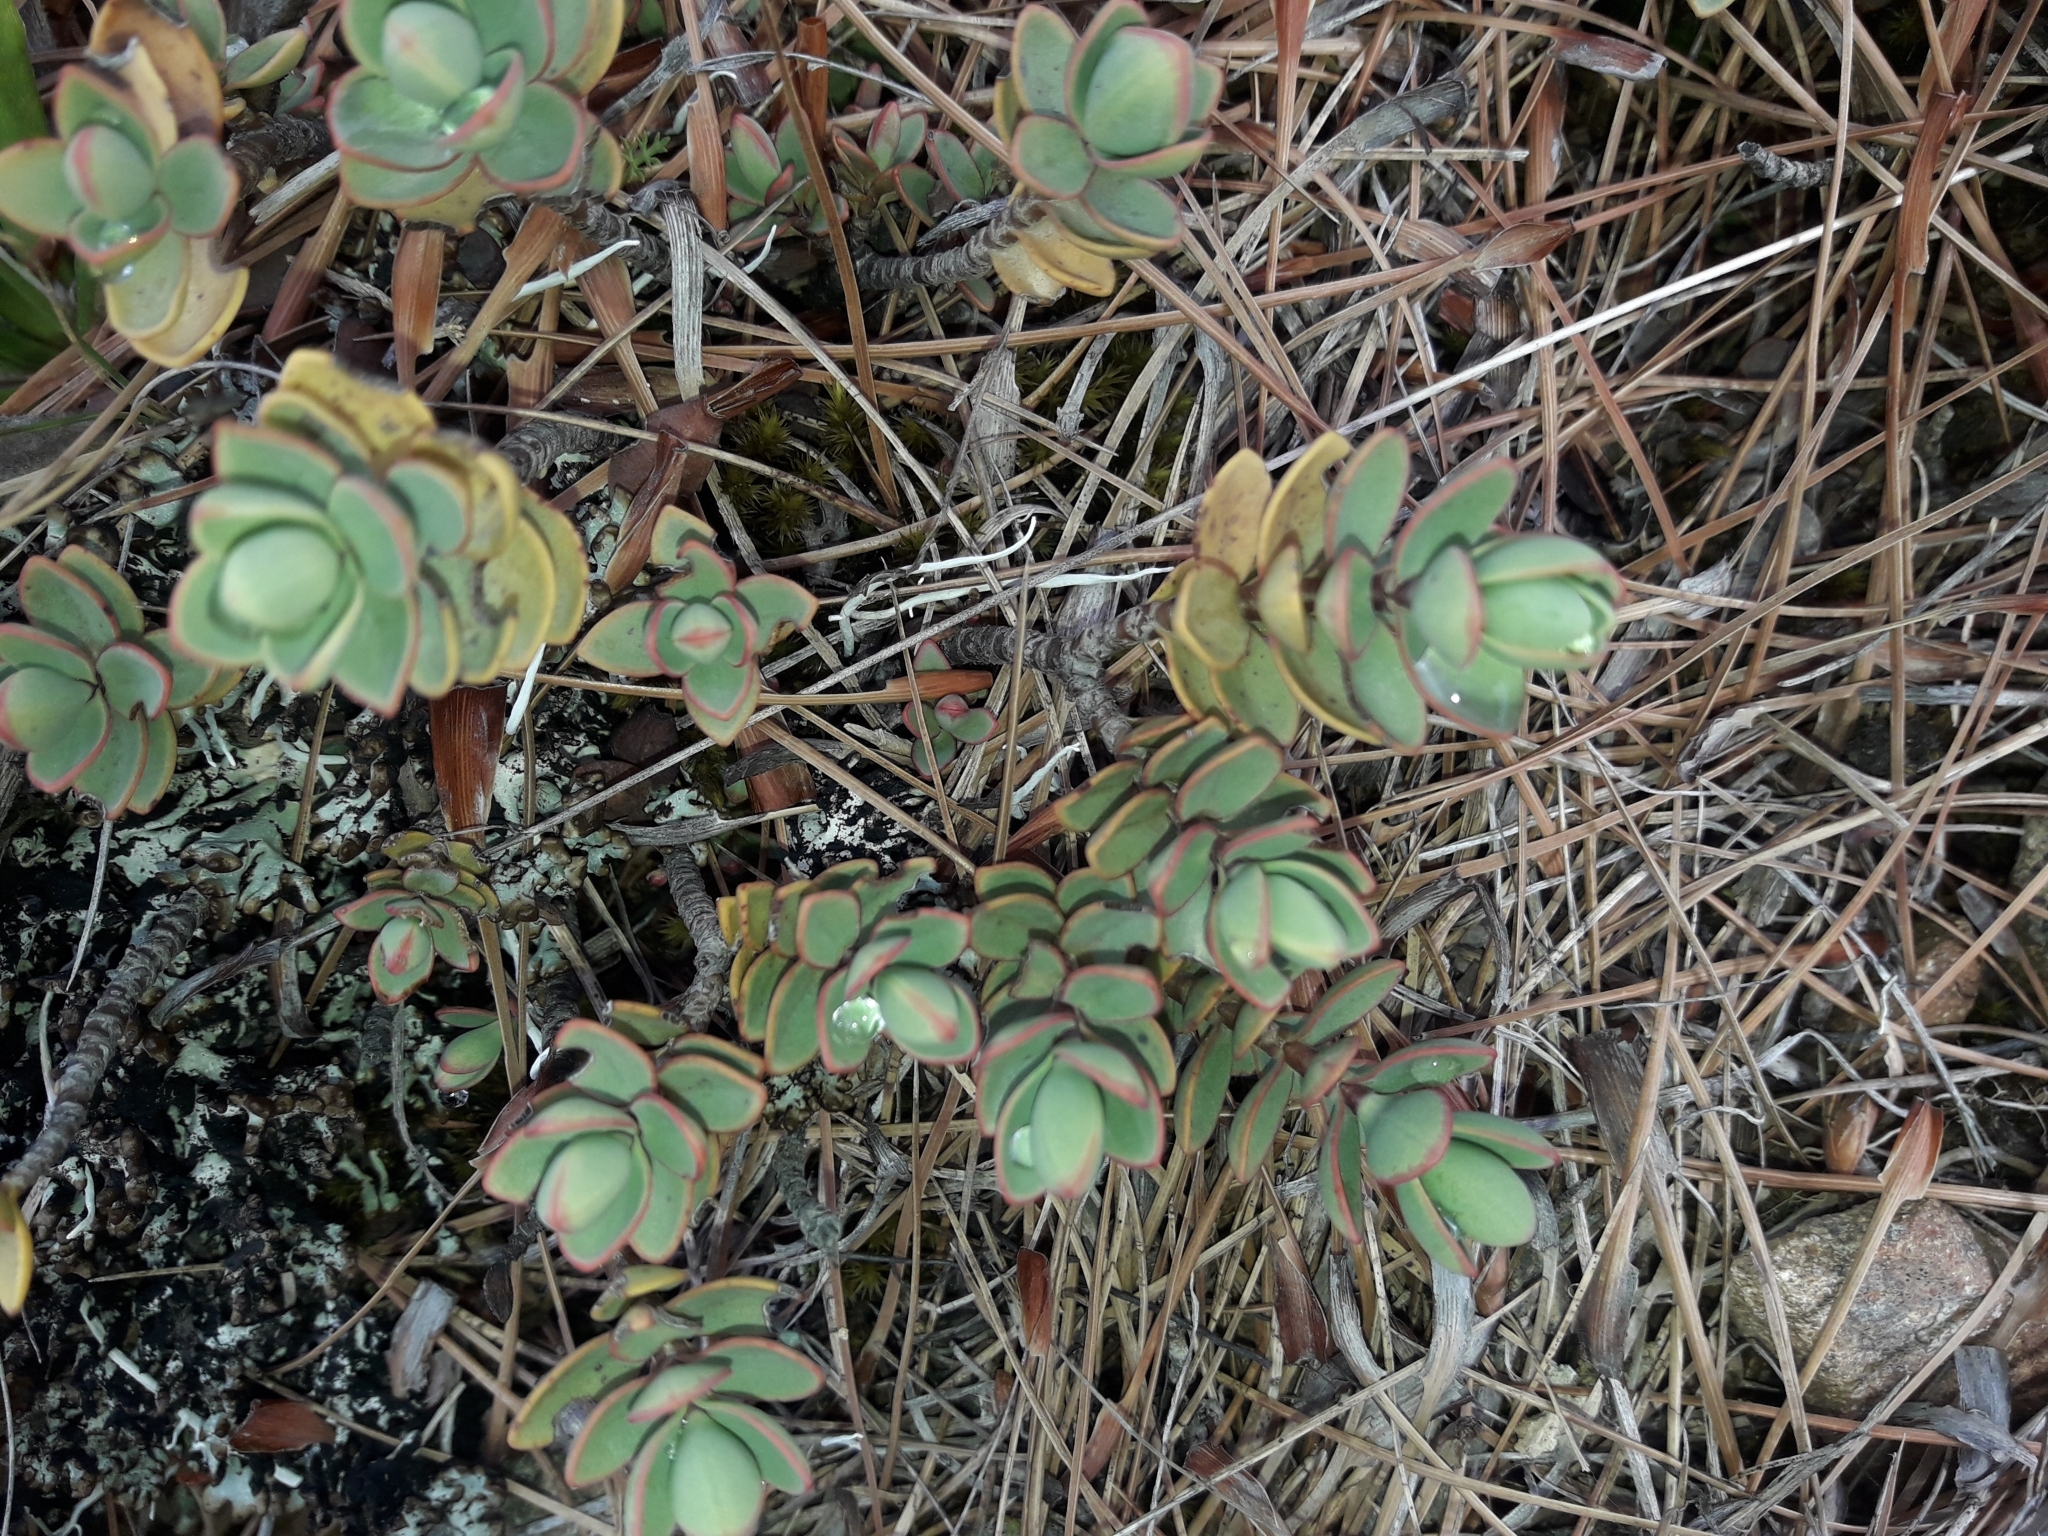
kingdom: Plantae
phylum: Tracheophyta
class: Magnoliopsida
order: Lamiales
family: Plantaginaceae
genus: Veronica
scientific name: Veronica pinguifolia
